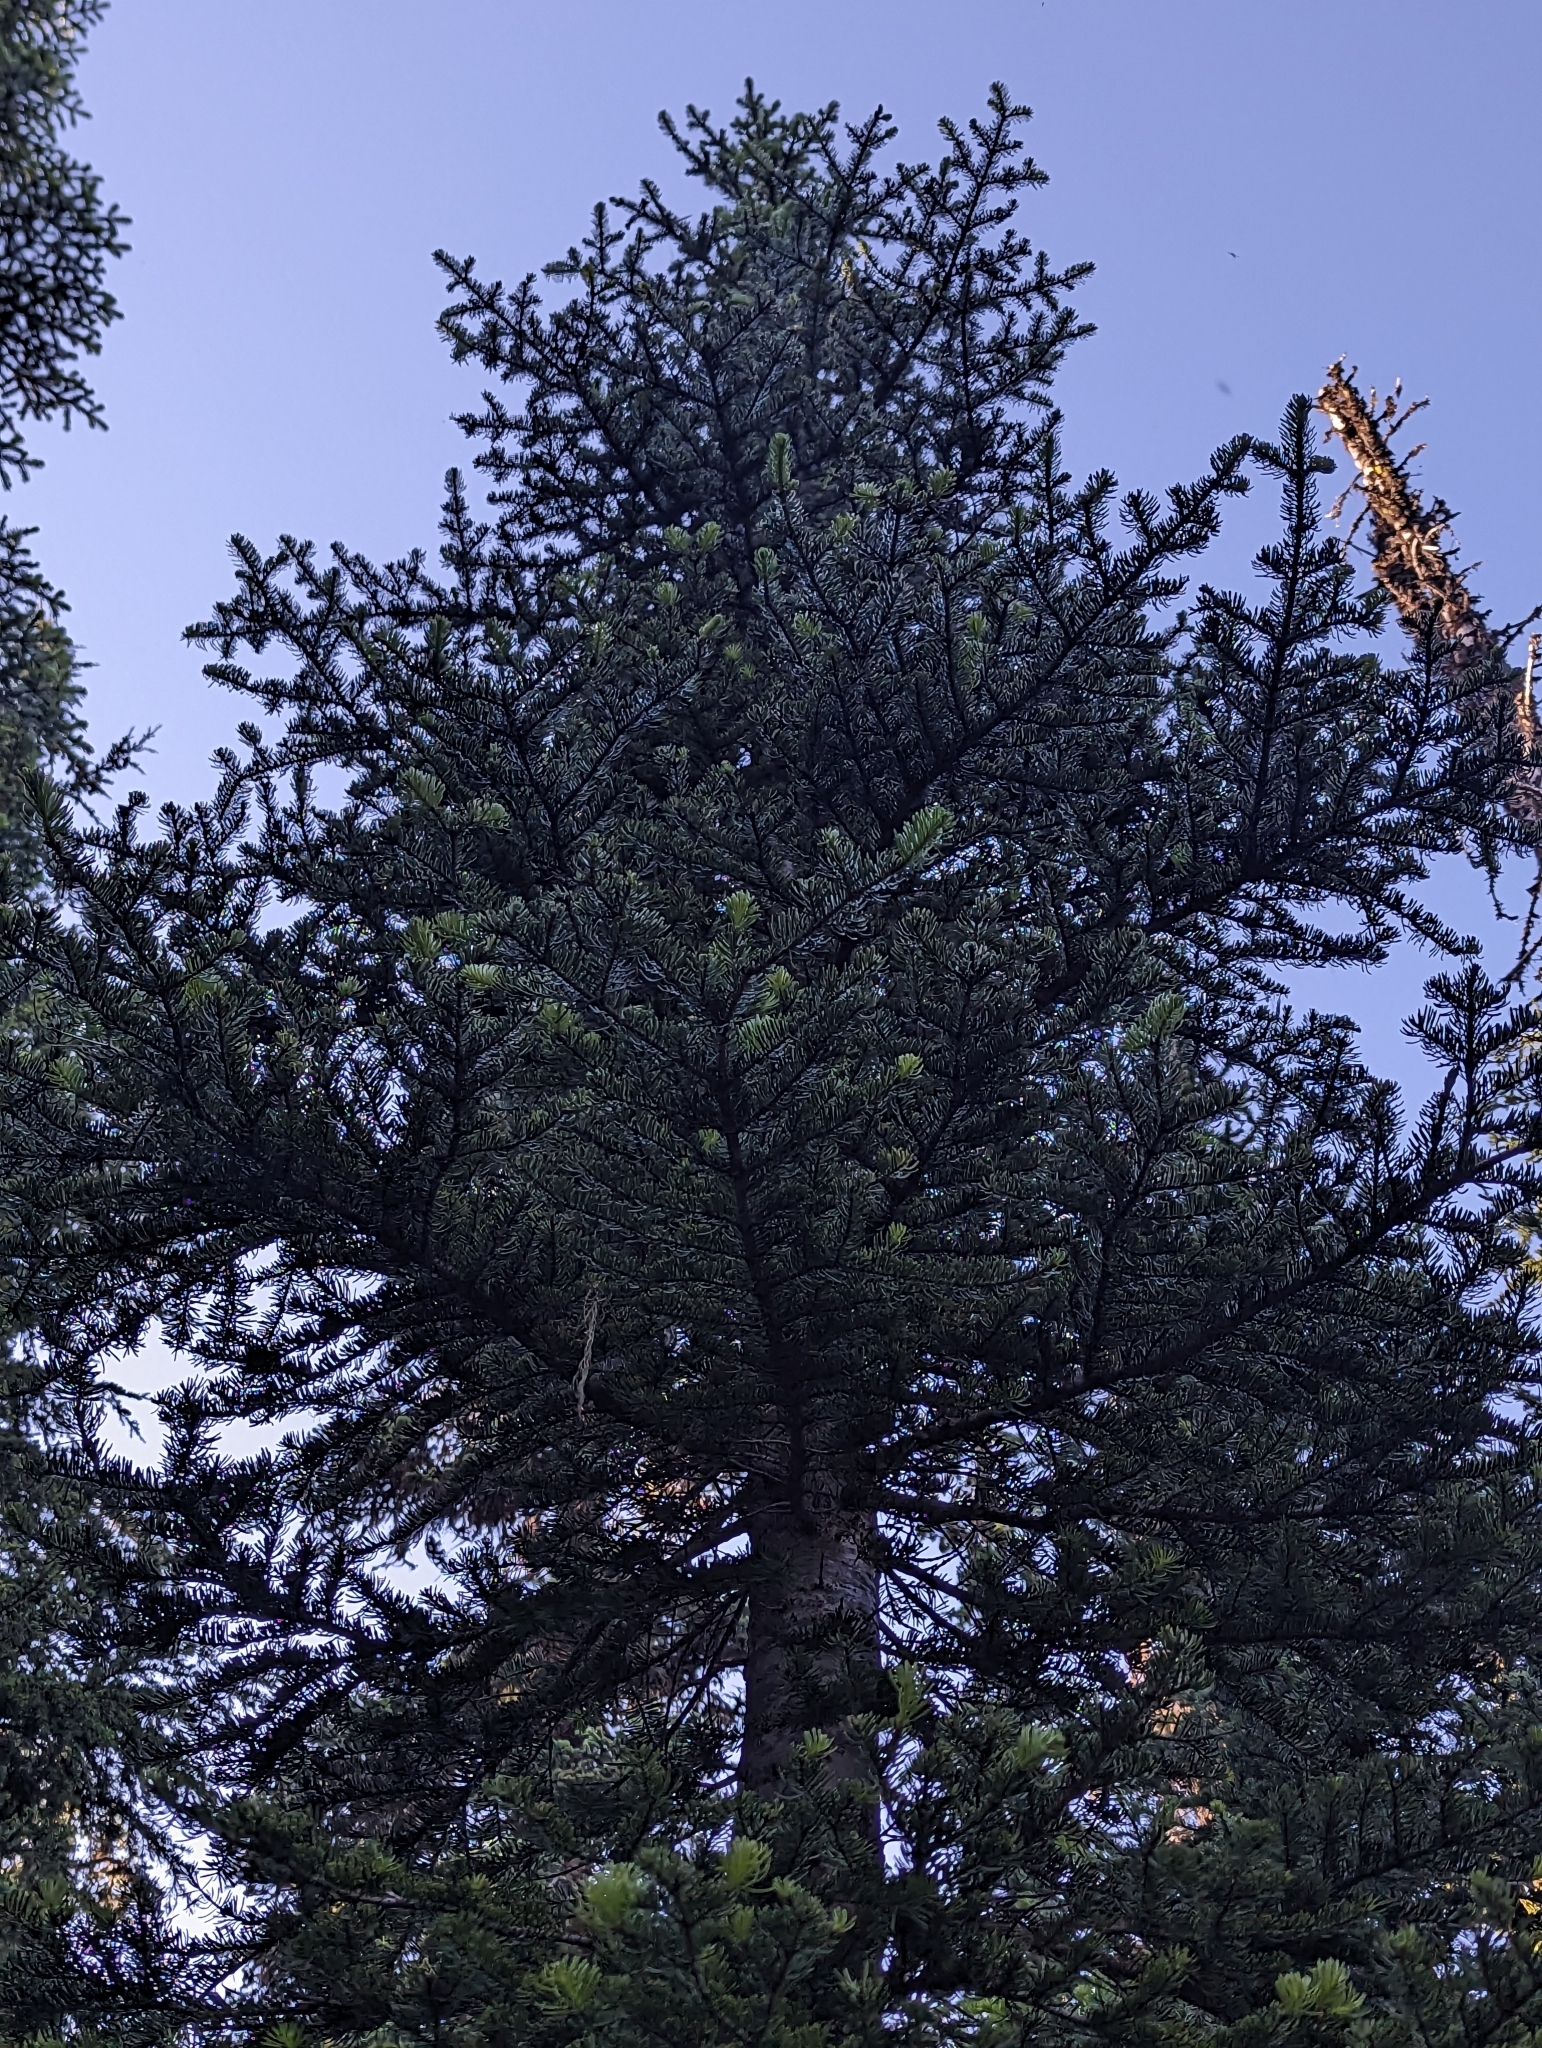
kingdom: Plantae
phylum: Tracheophyta
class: Pinopsida
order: Pinales
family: Pinaceae
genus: Abies
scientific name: Abies lasiocarpa
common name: Subalpine fir
